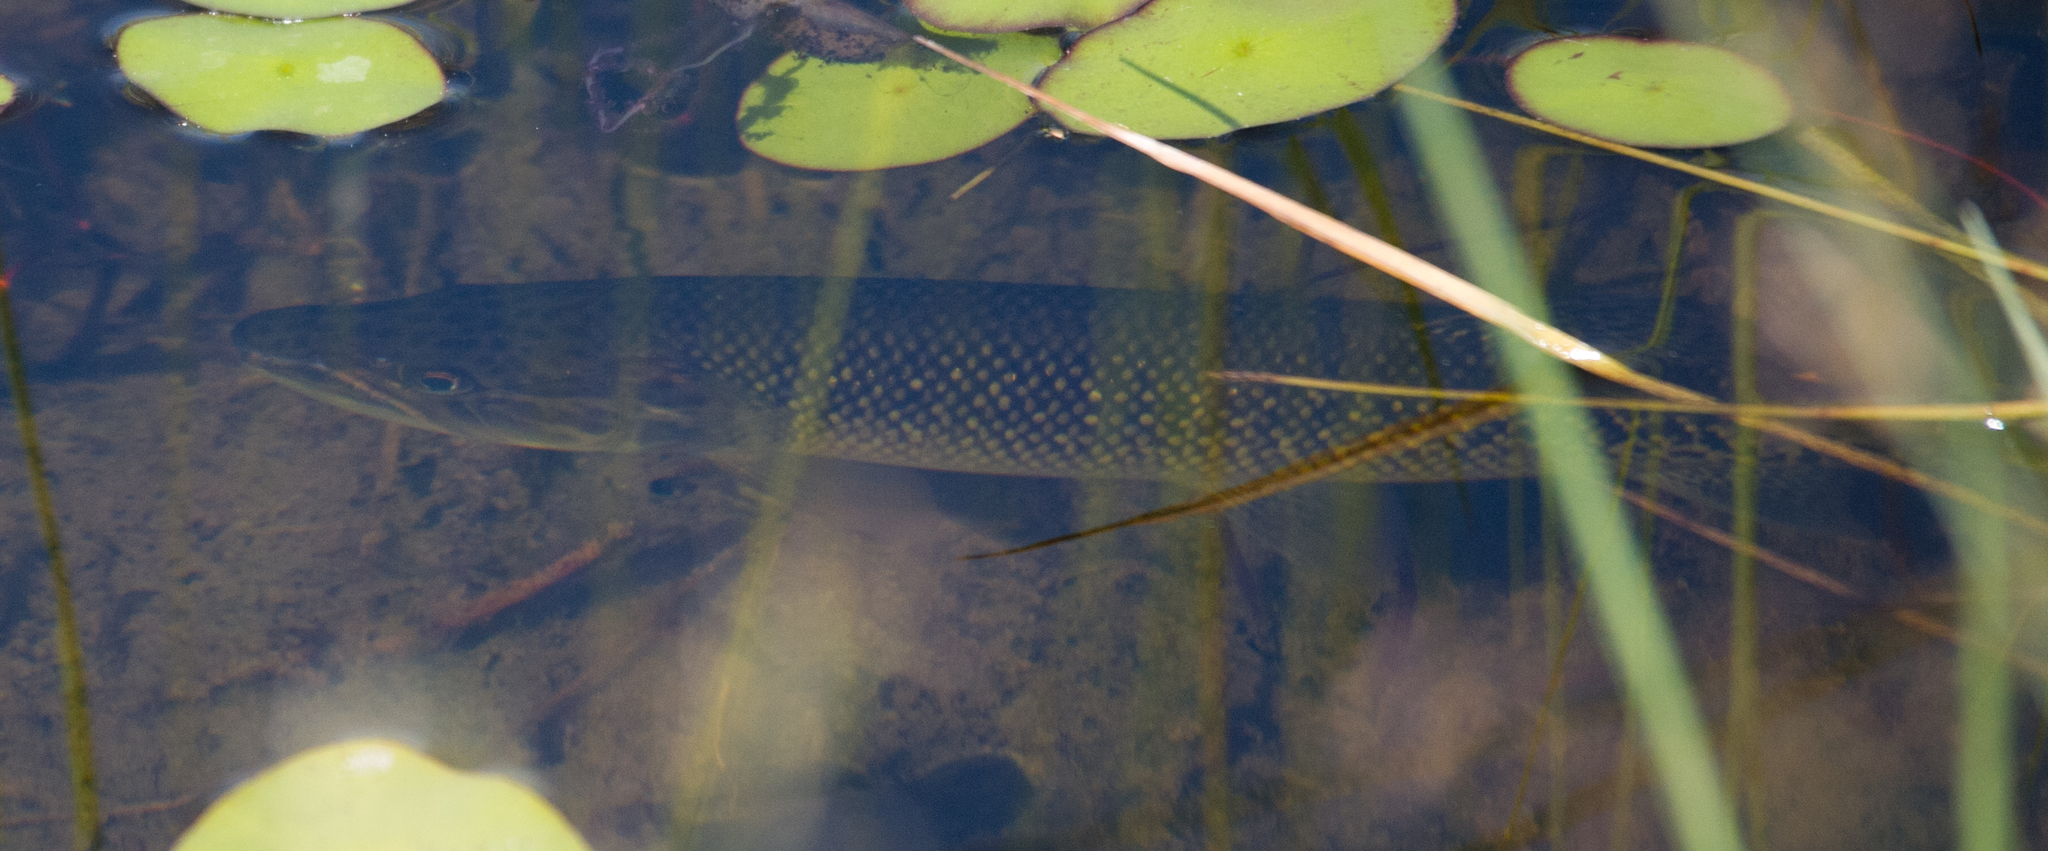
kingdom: Animalia
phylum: Chordata
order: Characiformes
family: Hepsetidae
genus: Hepsetus
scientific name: Hepsetus cuvieri
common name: African pike
